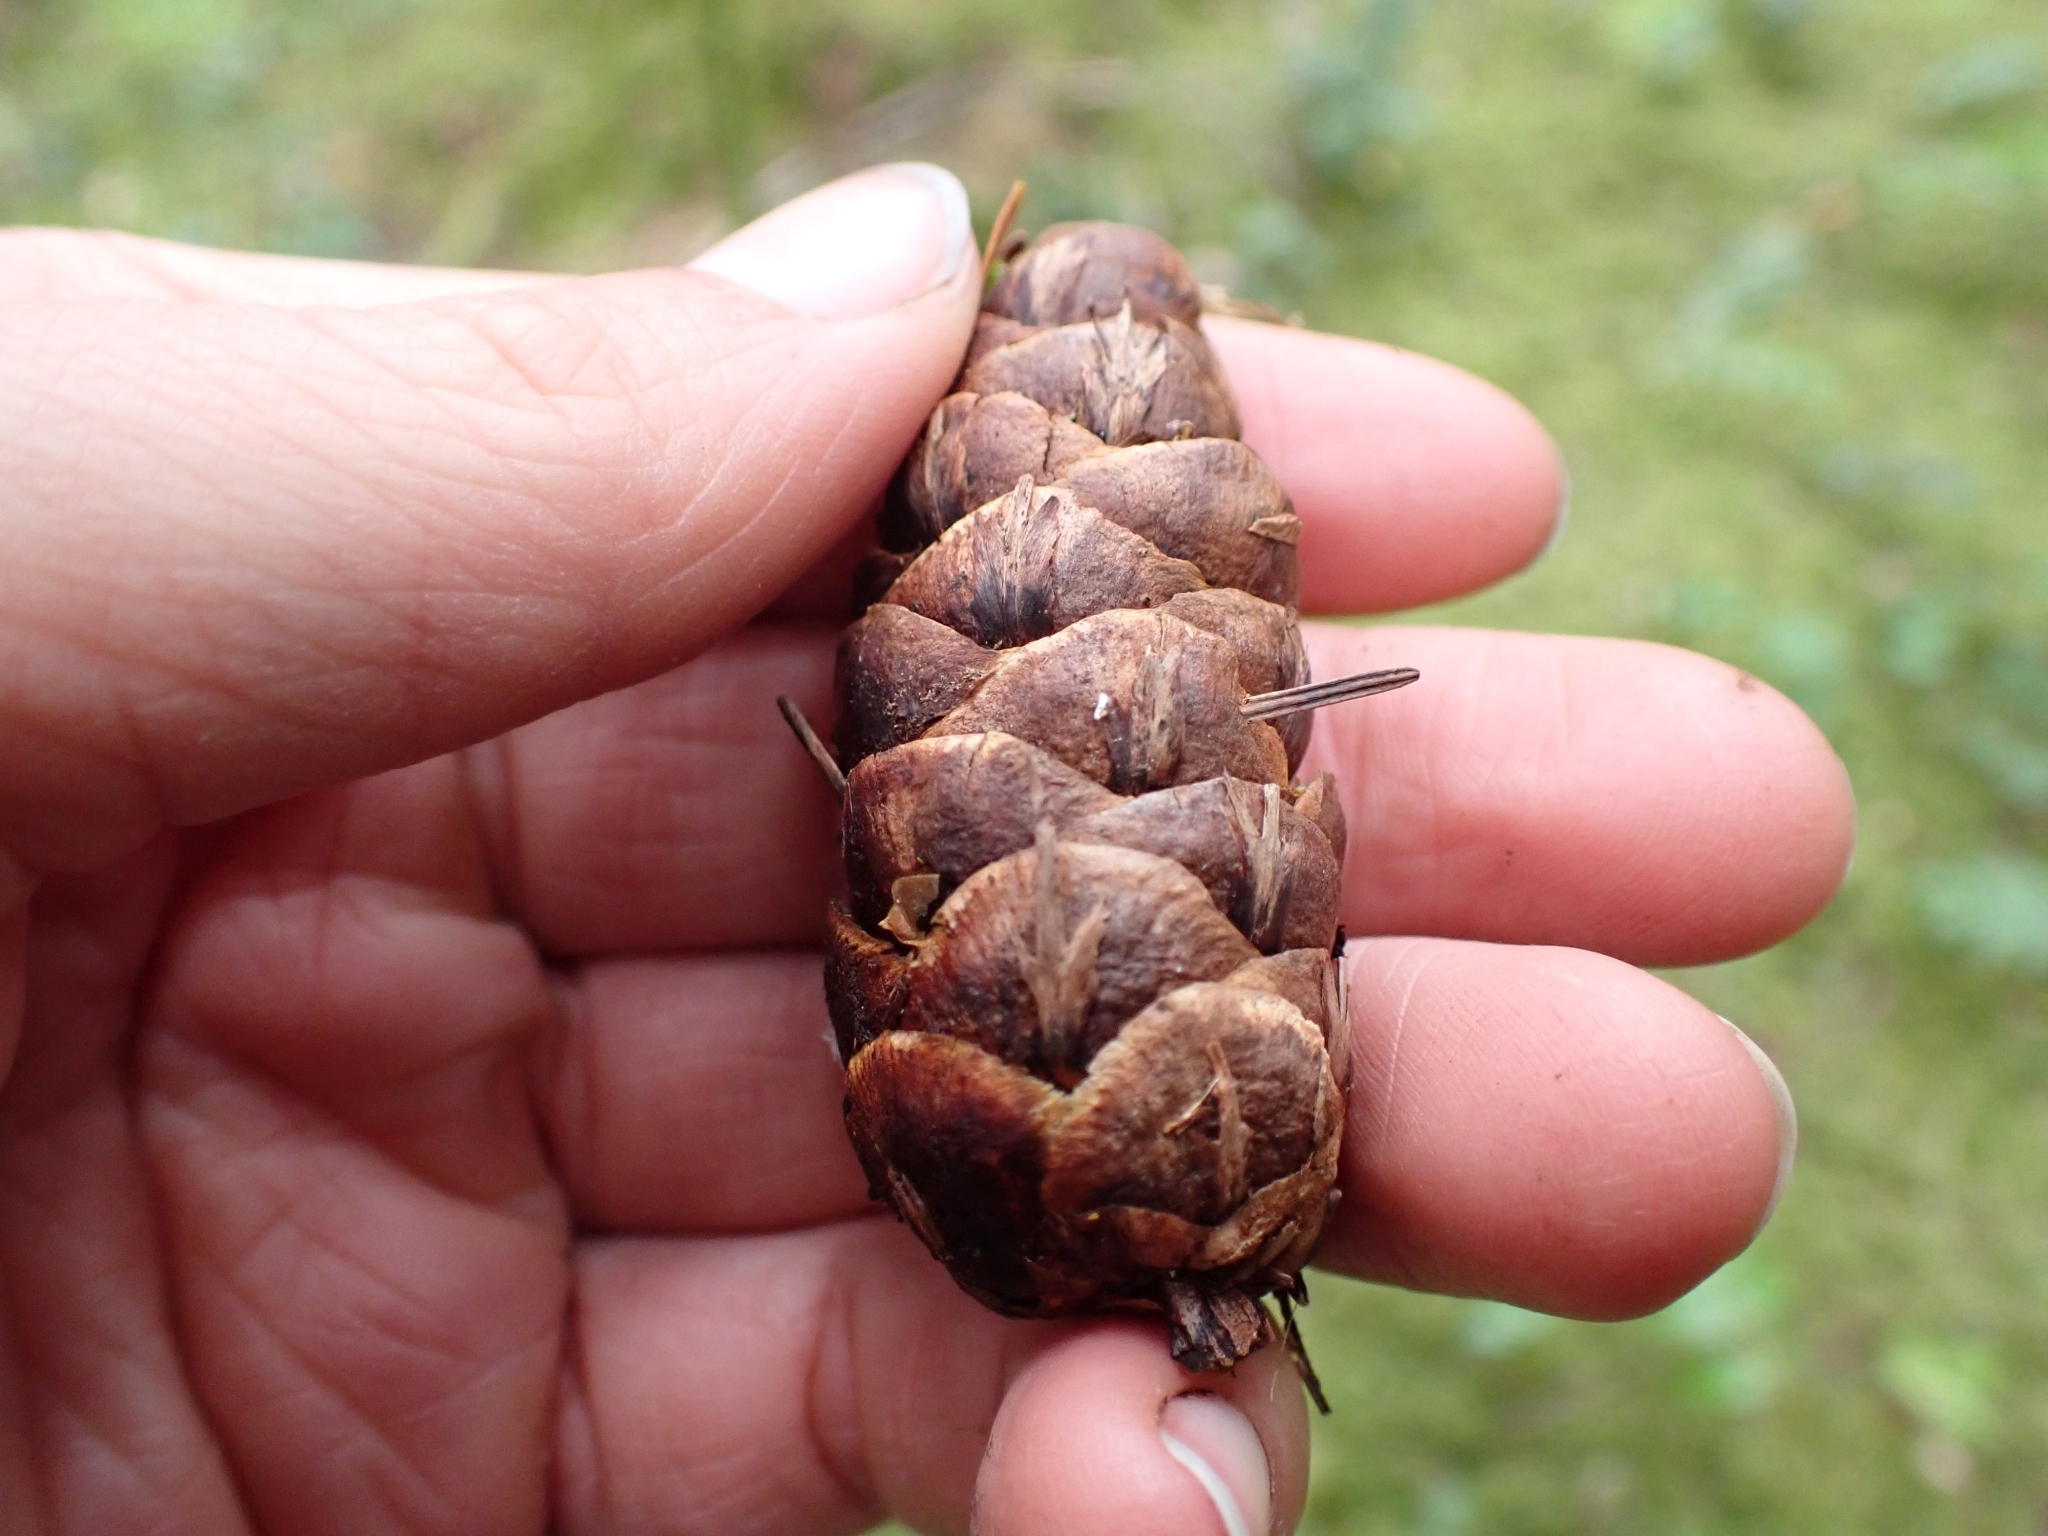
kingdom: Plantae
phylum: Tracheophyta
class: Pinopsida
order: Pinales
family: Pinaceae
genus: Pseudotsuga
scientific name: Pseudotsuga menziesii
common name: Douglas fir
